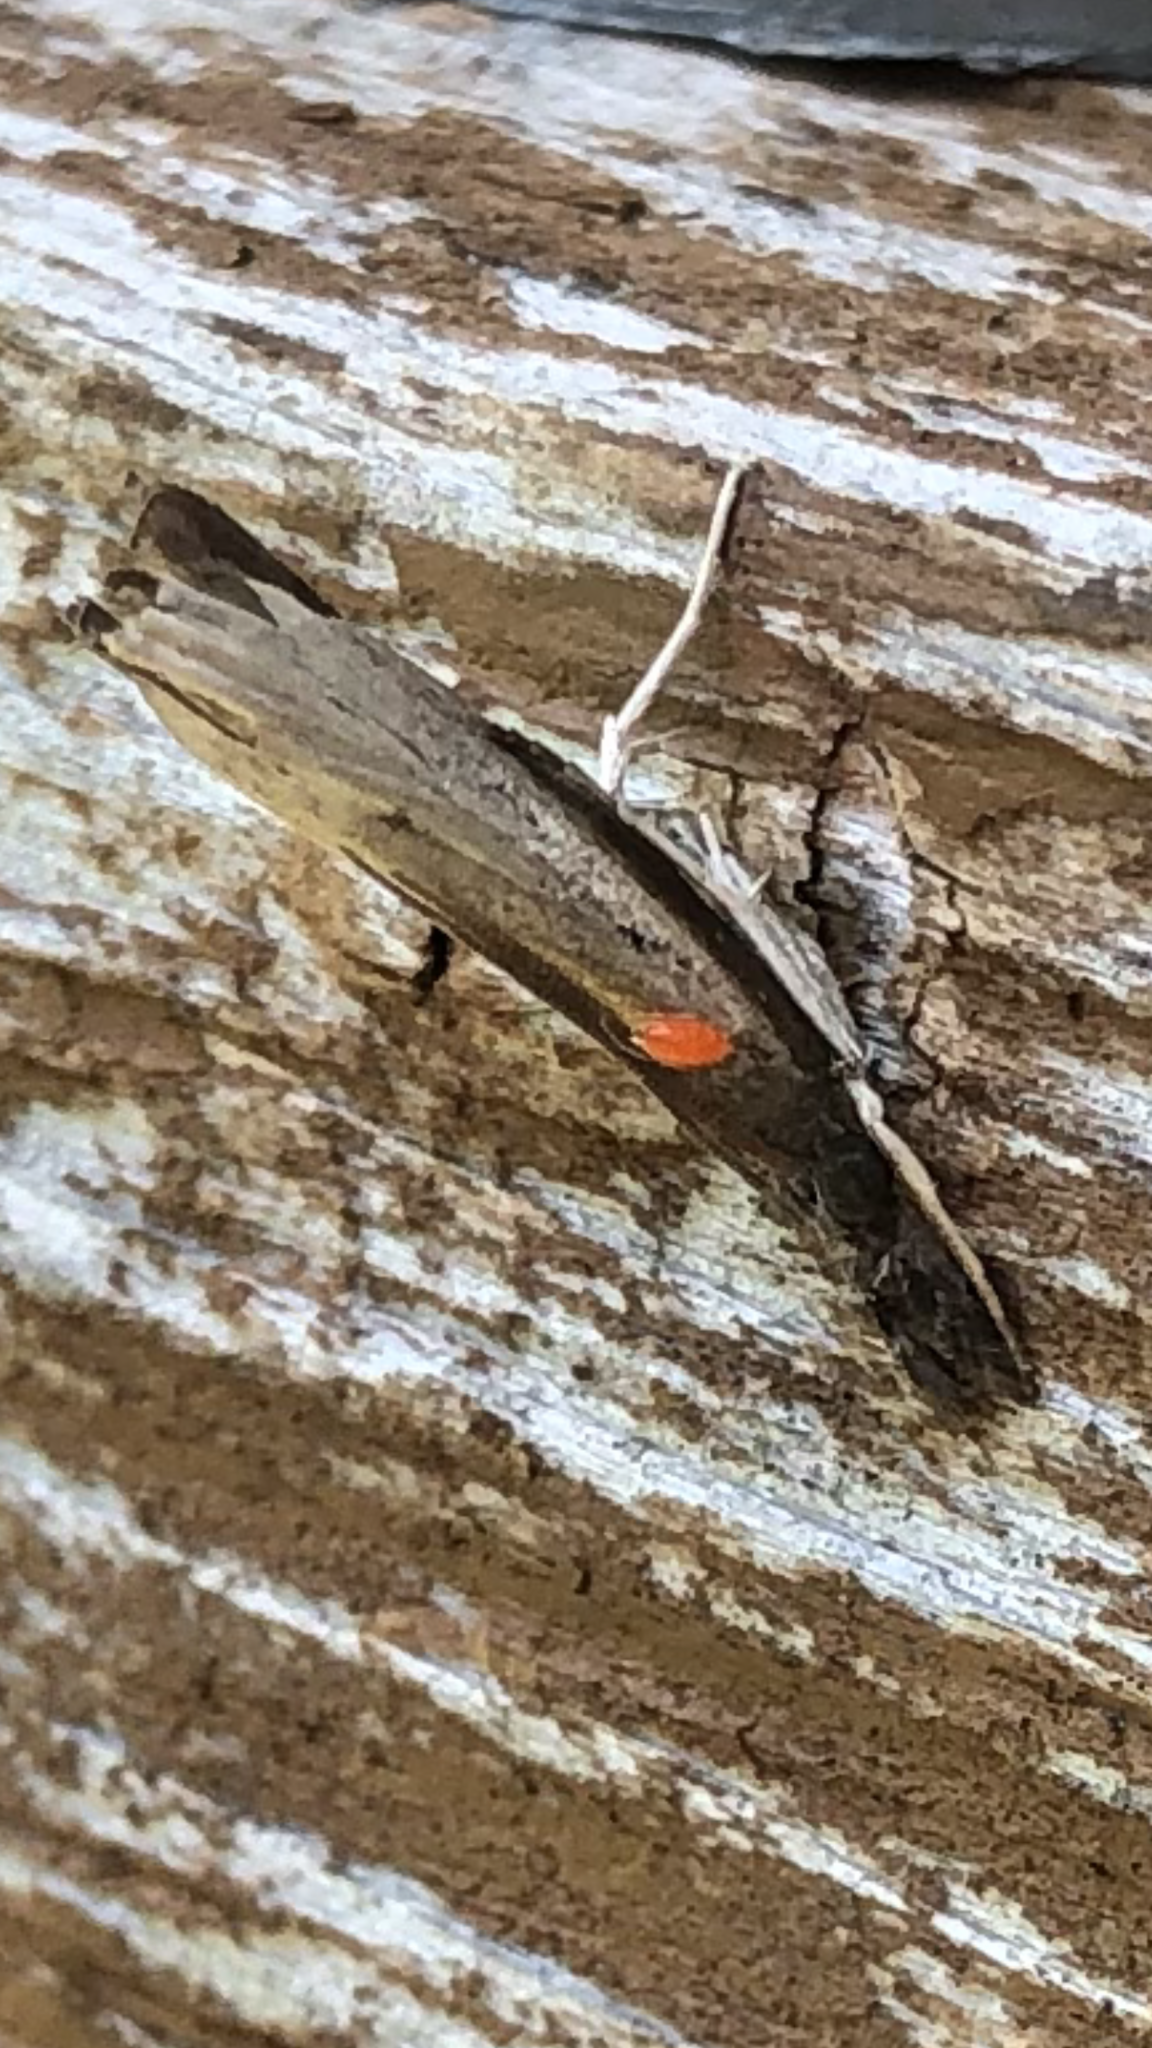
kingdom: Animalia
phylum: Arthropoda
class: Insecta
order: Lepidoptera
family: Crambidae
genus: Fissicrambus
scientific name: Fissicrambus mutabilis
